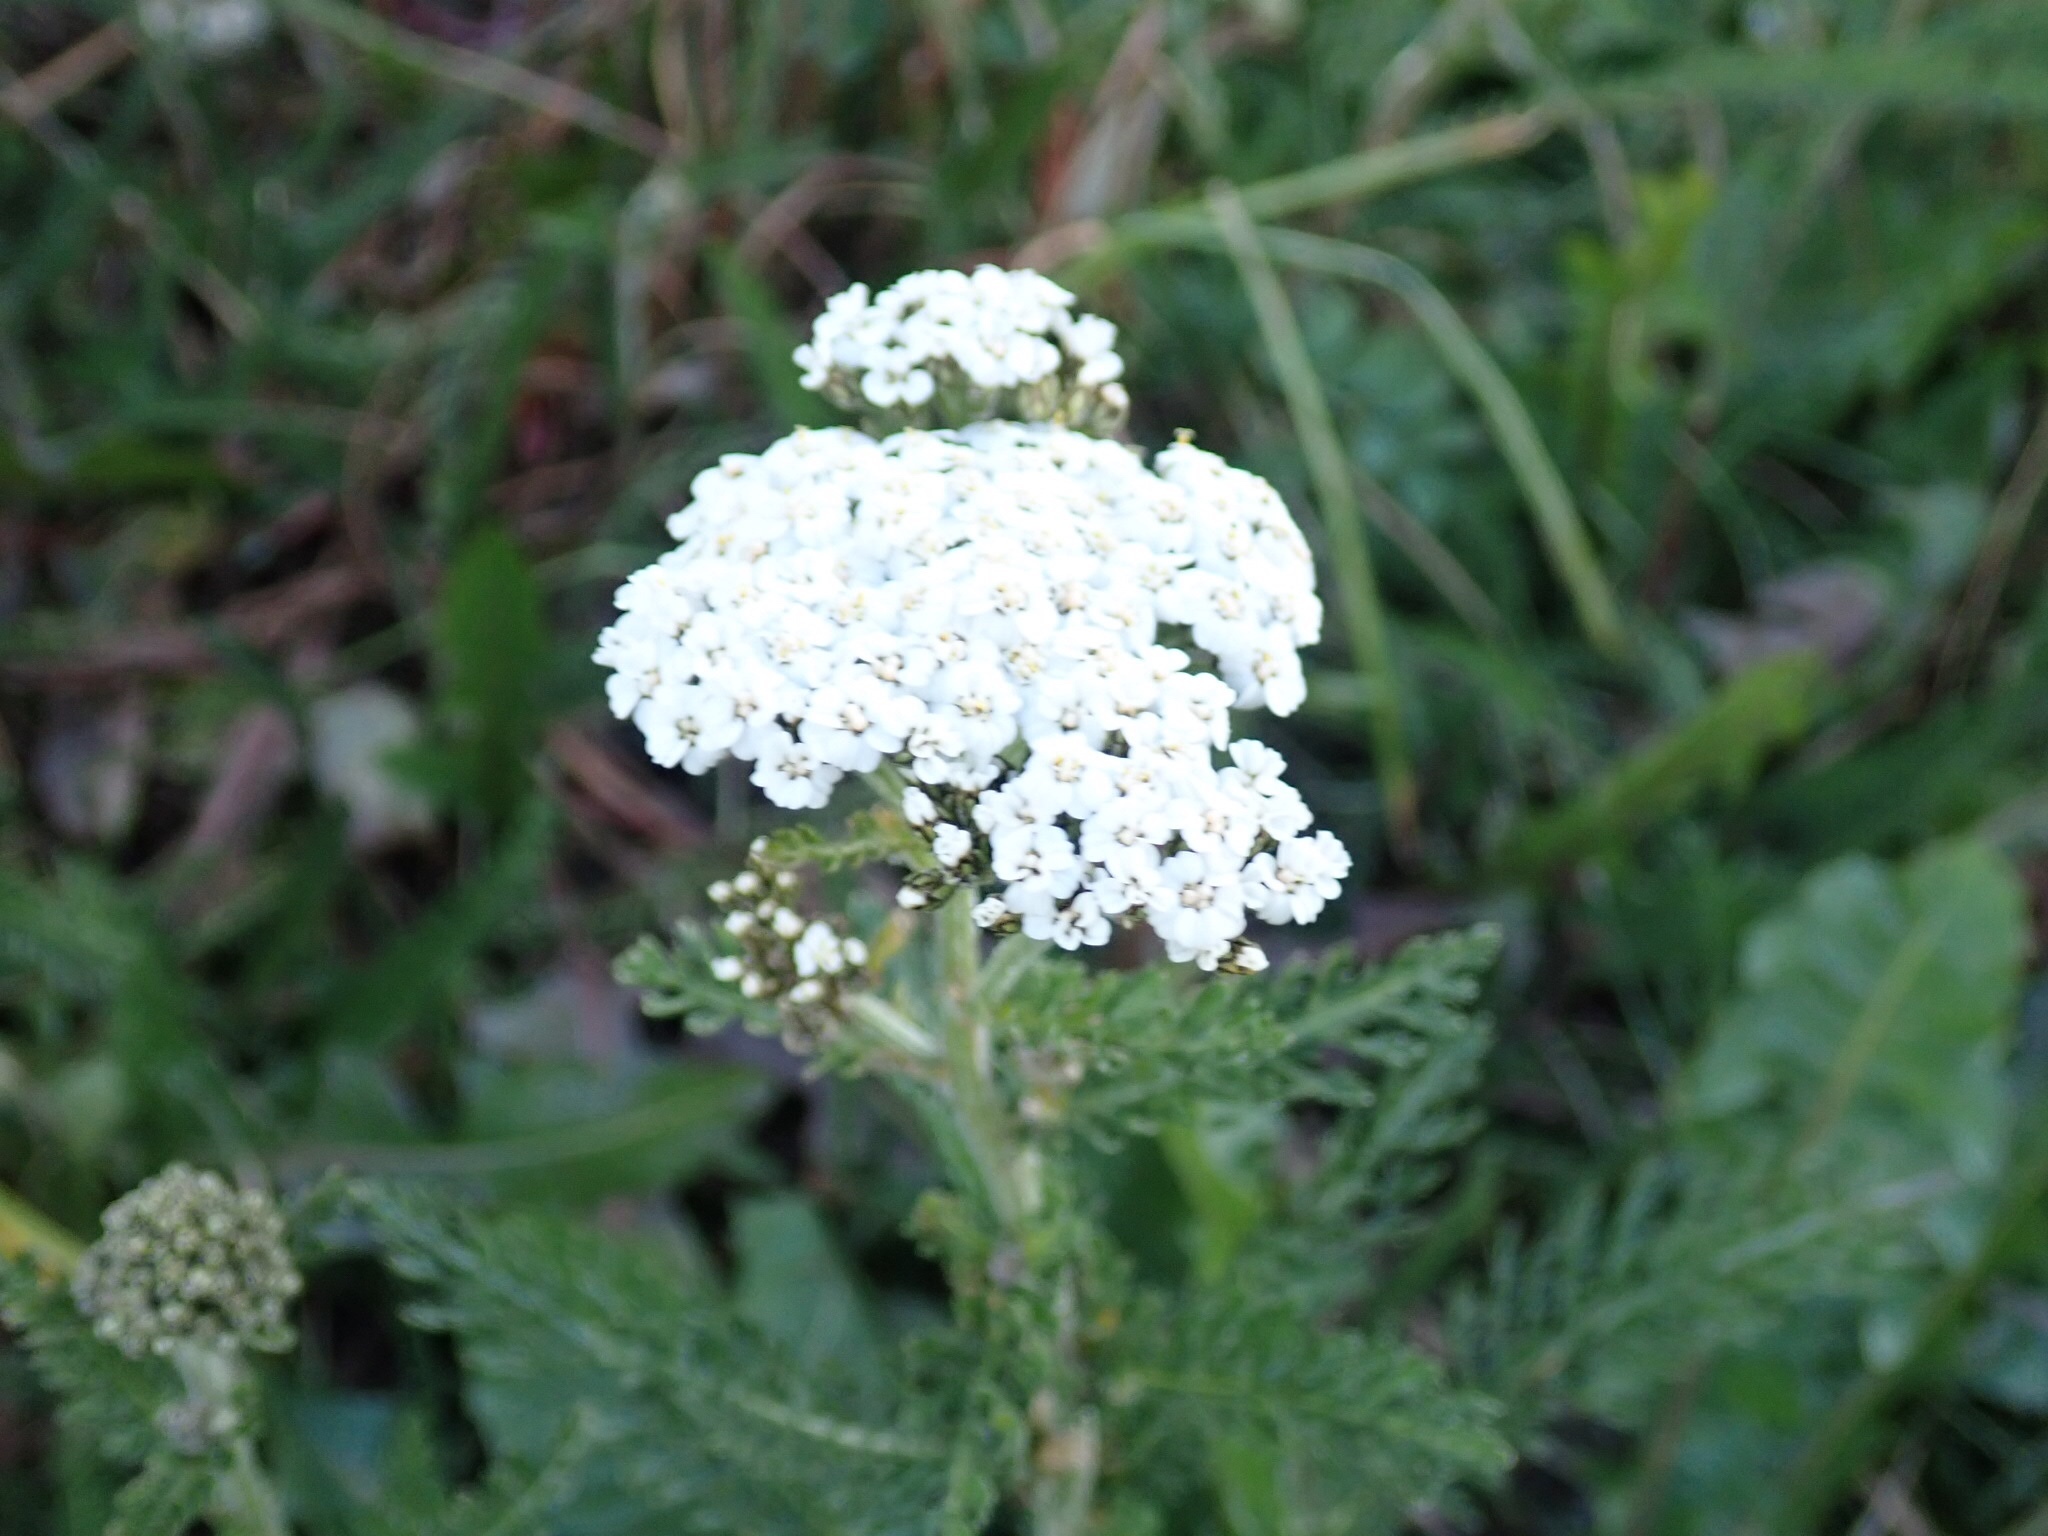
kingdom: Plantae
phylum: Tracheophyta
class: Magnoliopsida
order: Asterales
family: Asteraceae
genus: Achillea
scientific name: Achillea millefolium
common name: Yarrow
